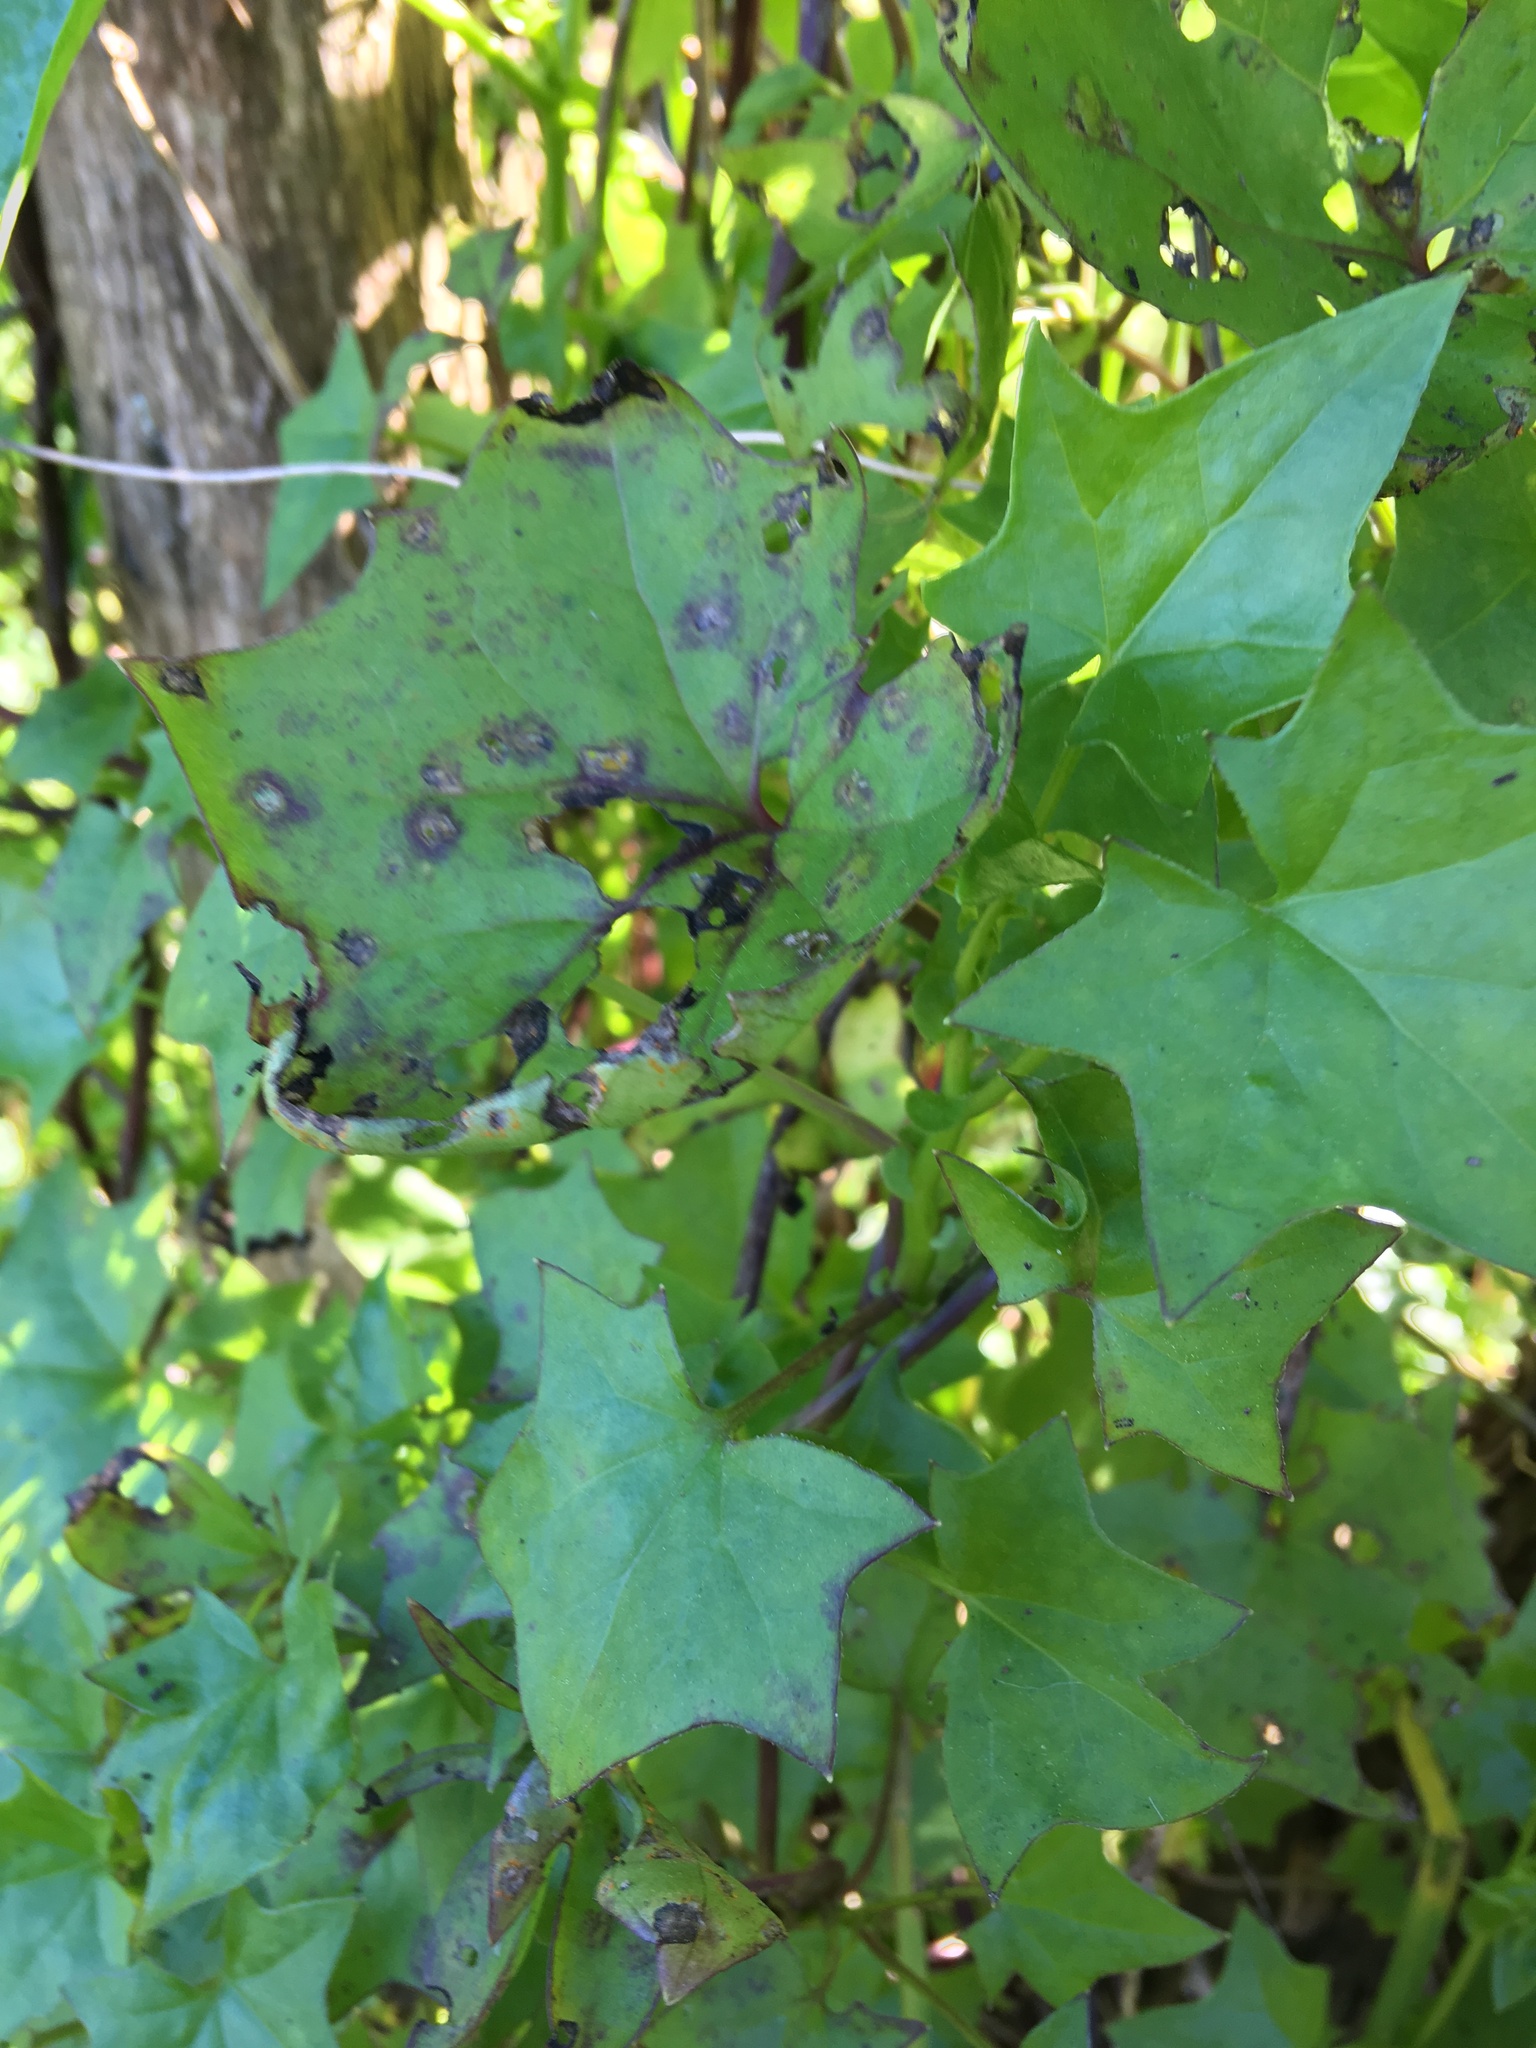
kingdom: Plantae
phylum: Tracheophyta
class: Magnoliopsida
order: Asterales
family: Asteraceae
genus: Delairea
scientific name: Delairea odorata
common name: Cape-ivy
